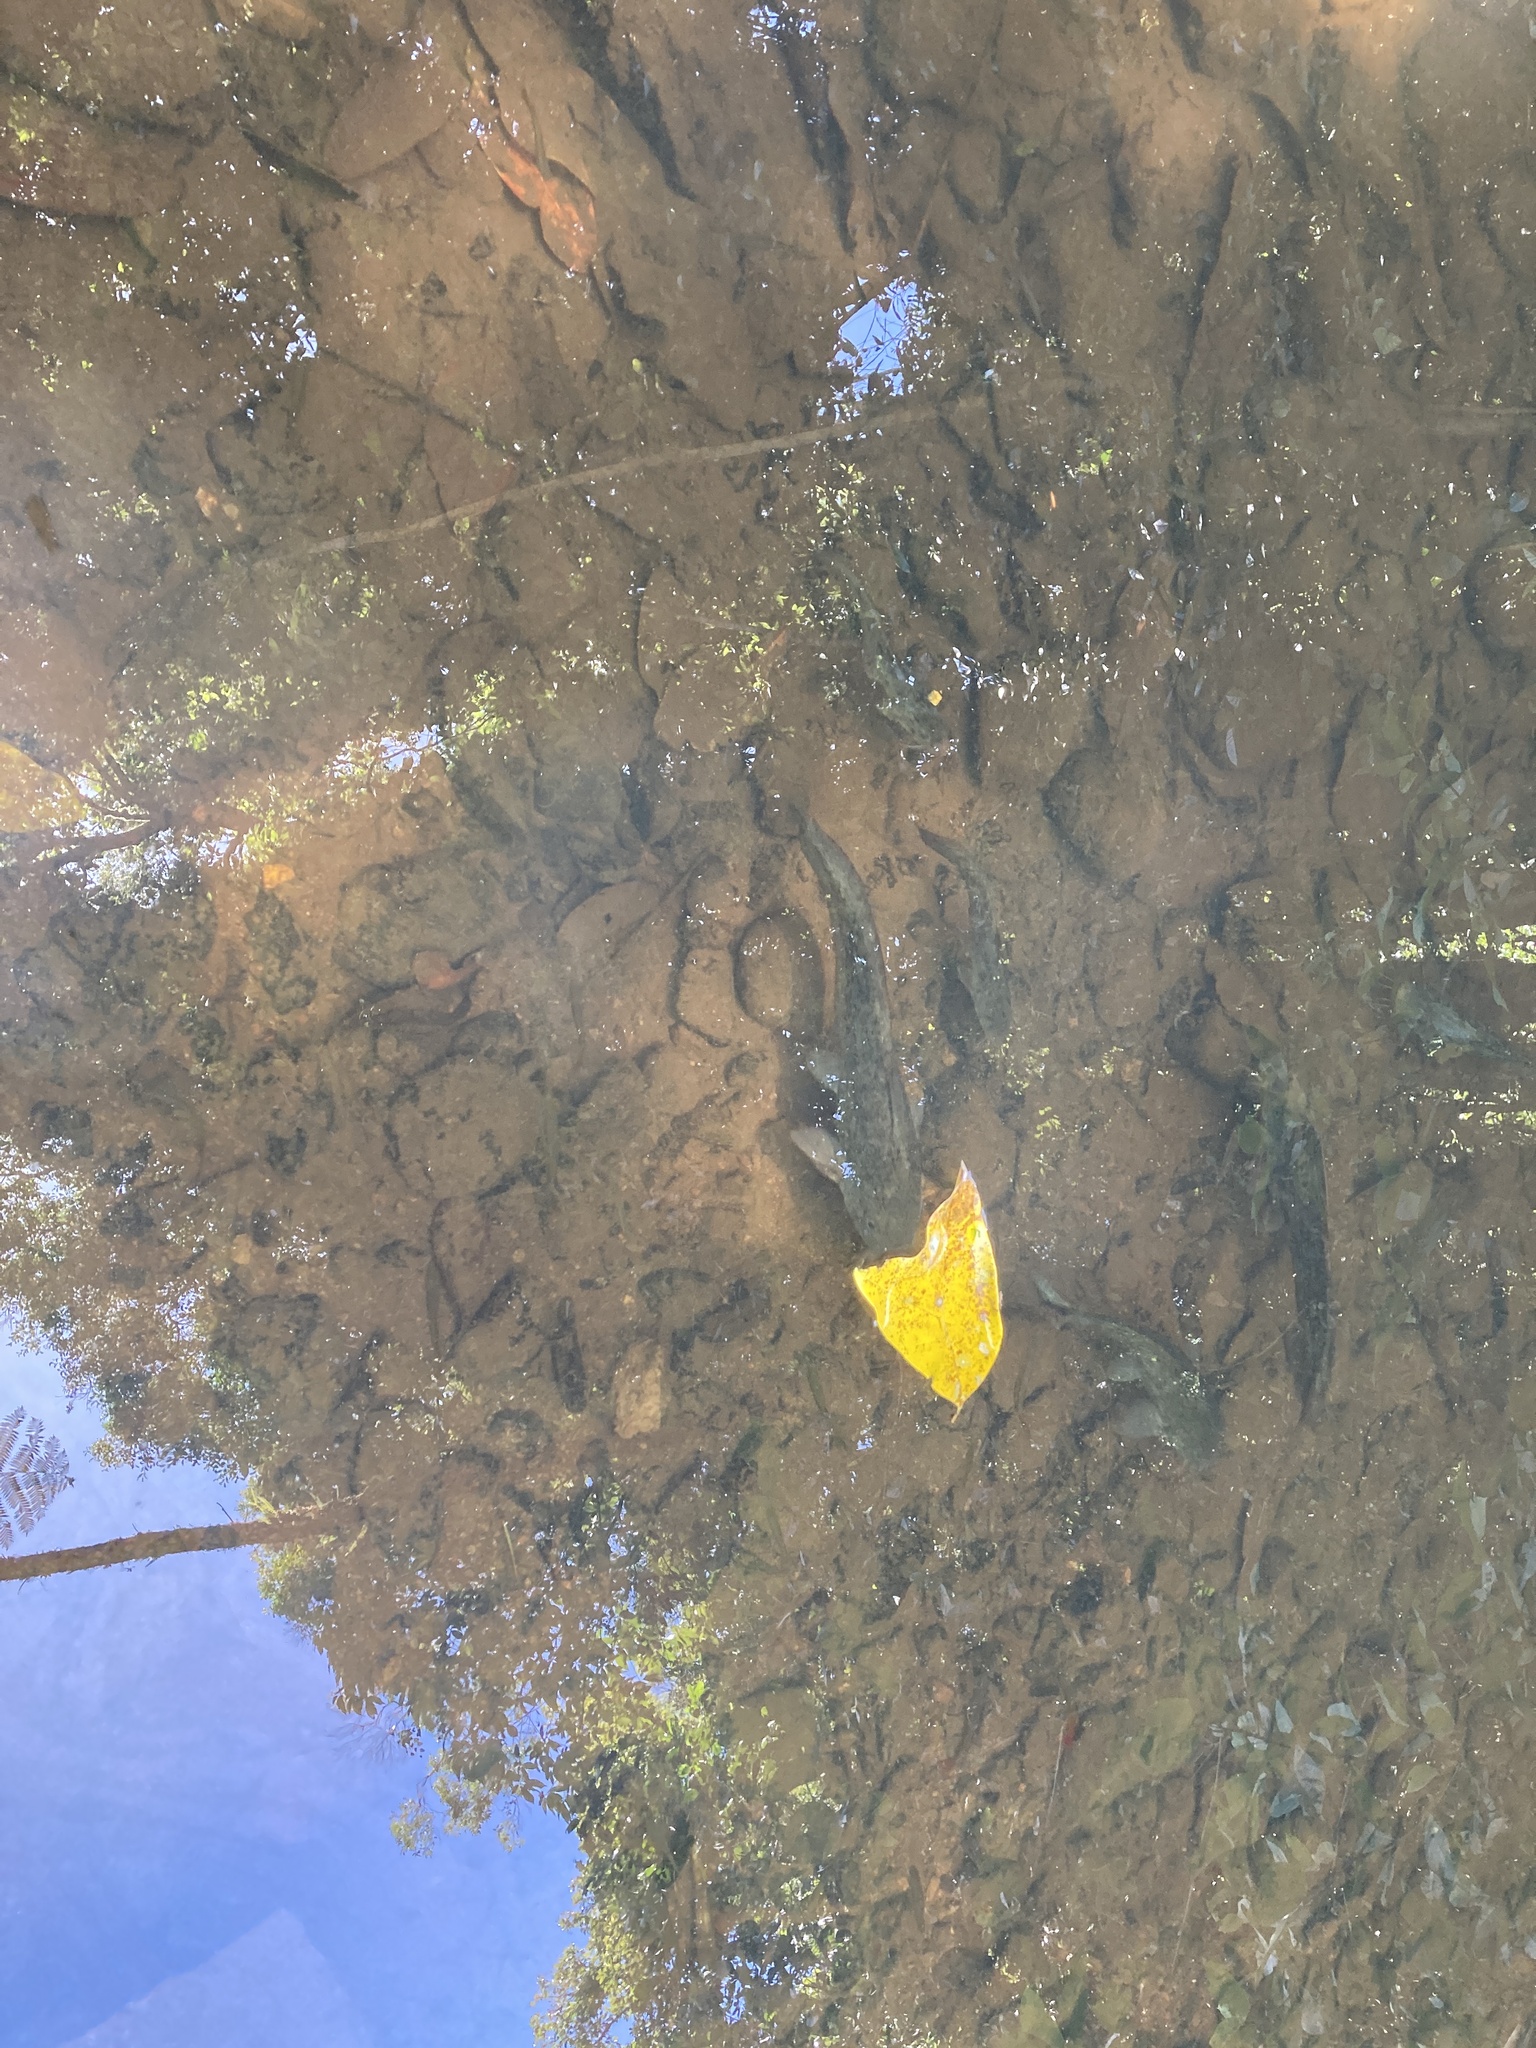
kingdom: Animalia
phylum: Chordata
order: Siluriformes
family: Plotosidae
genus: Tandanus
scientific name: Tandanus tropicanus
